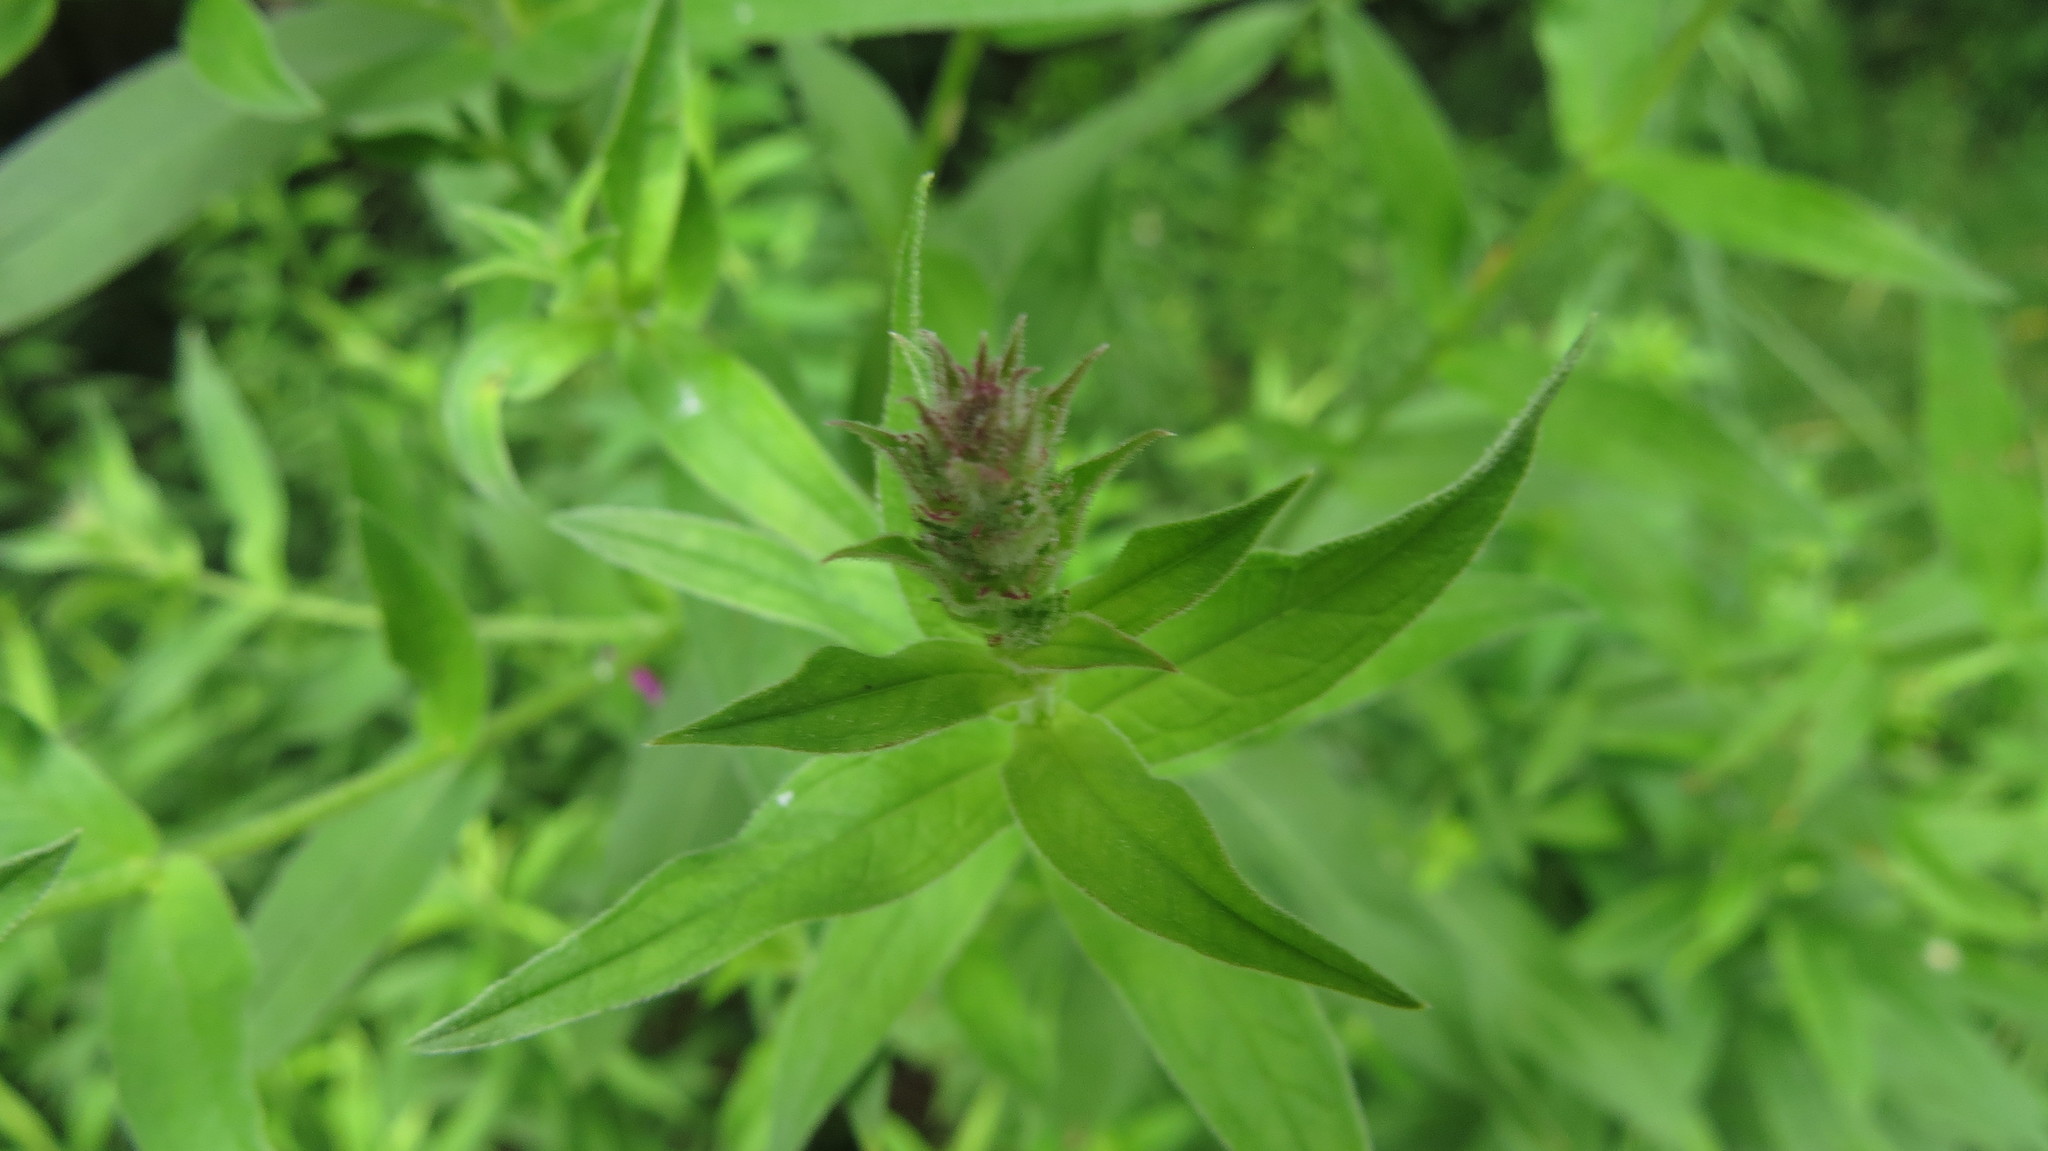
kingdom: Plantae
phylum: Tracheophyta
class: Magnoliopsida
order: Myrtales
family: Lythraceae
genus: Lythrum
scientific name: Lythrum salicaria
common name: Purple loosestrife
